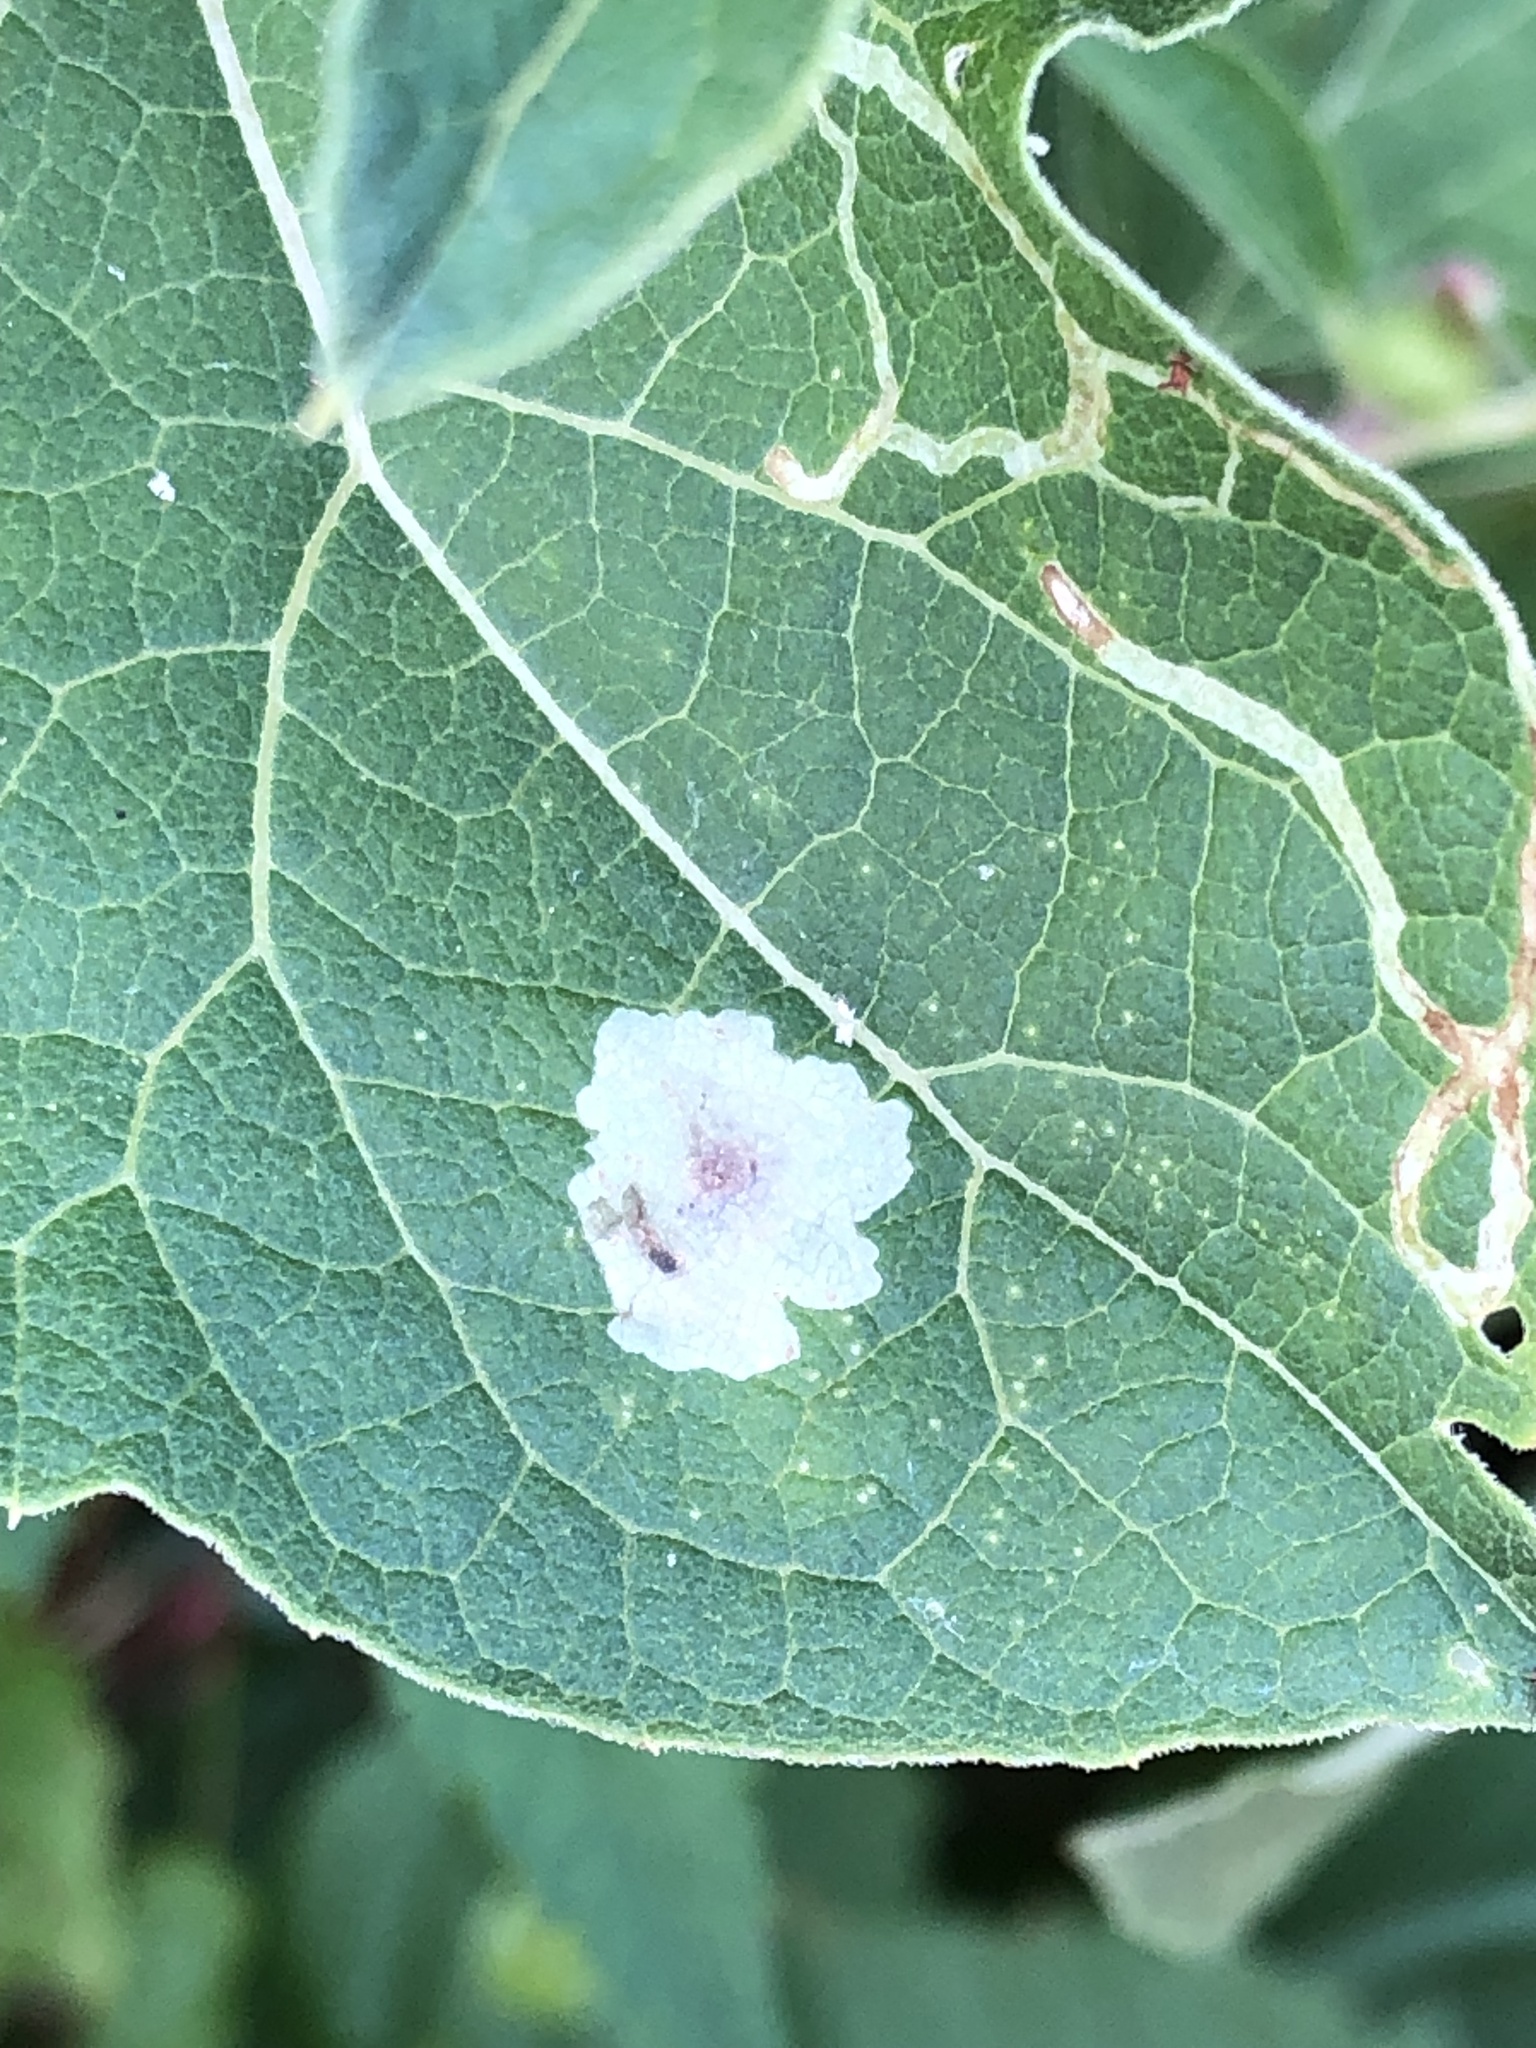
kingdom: Animalia
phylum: Arthropoda
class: Insecta
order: Diptera
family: Agromyzidae
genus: Calycomyza
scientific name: Calycomyza flavinotum
